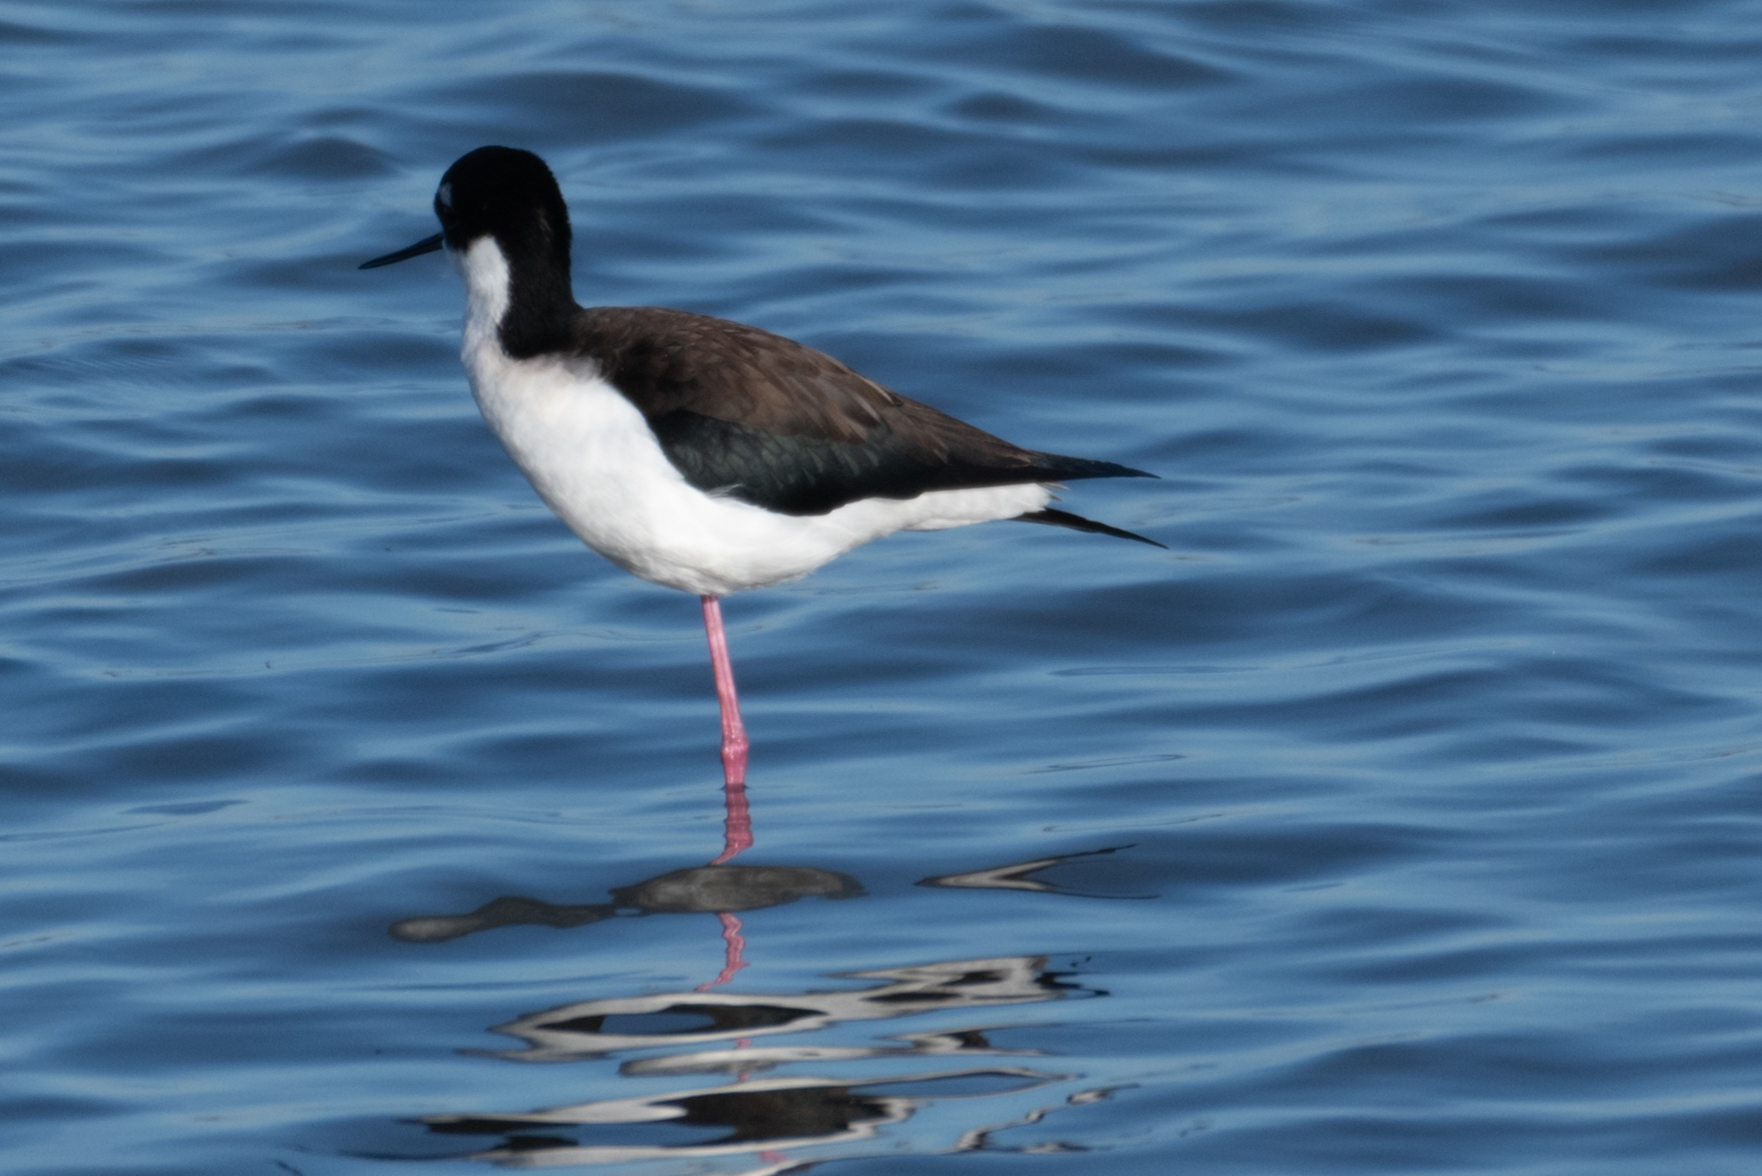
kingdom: Animalia
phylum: Chordata
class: Aves
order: Charadriiformes
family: Recurvirostridae
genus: Himantopus
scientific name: Himantopus mexicanus
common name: Black-necked stilt
